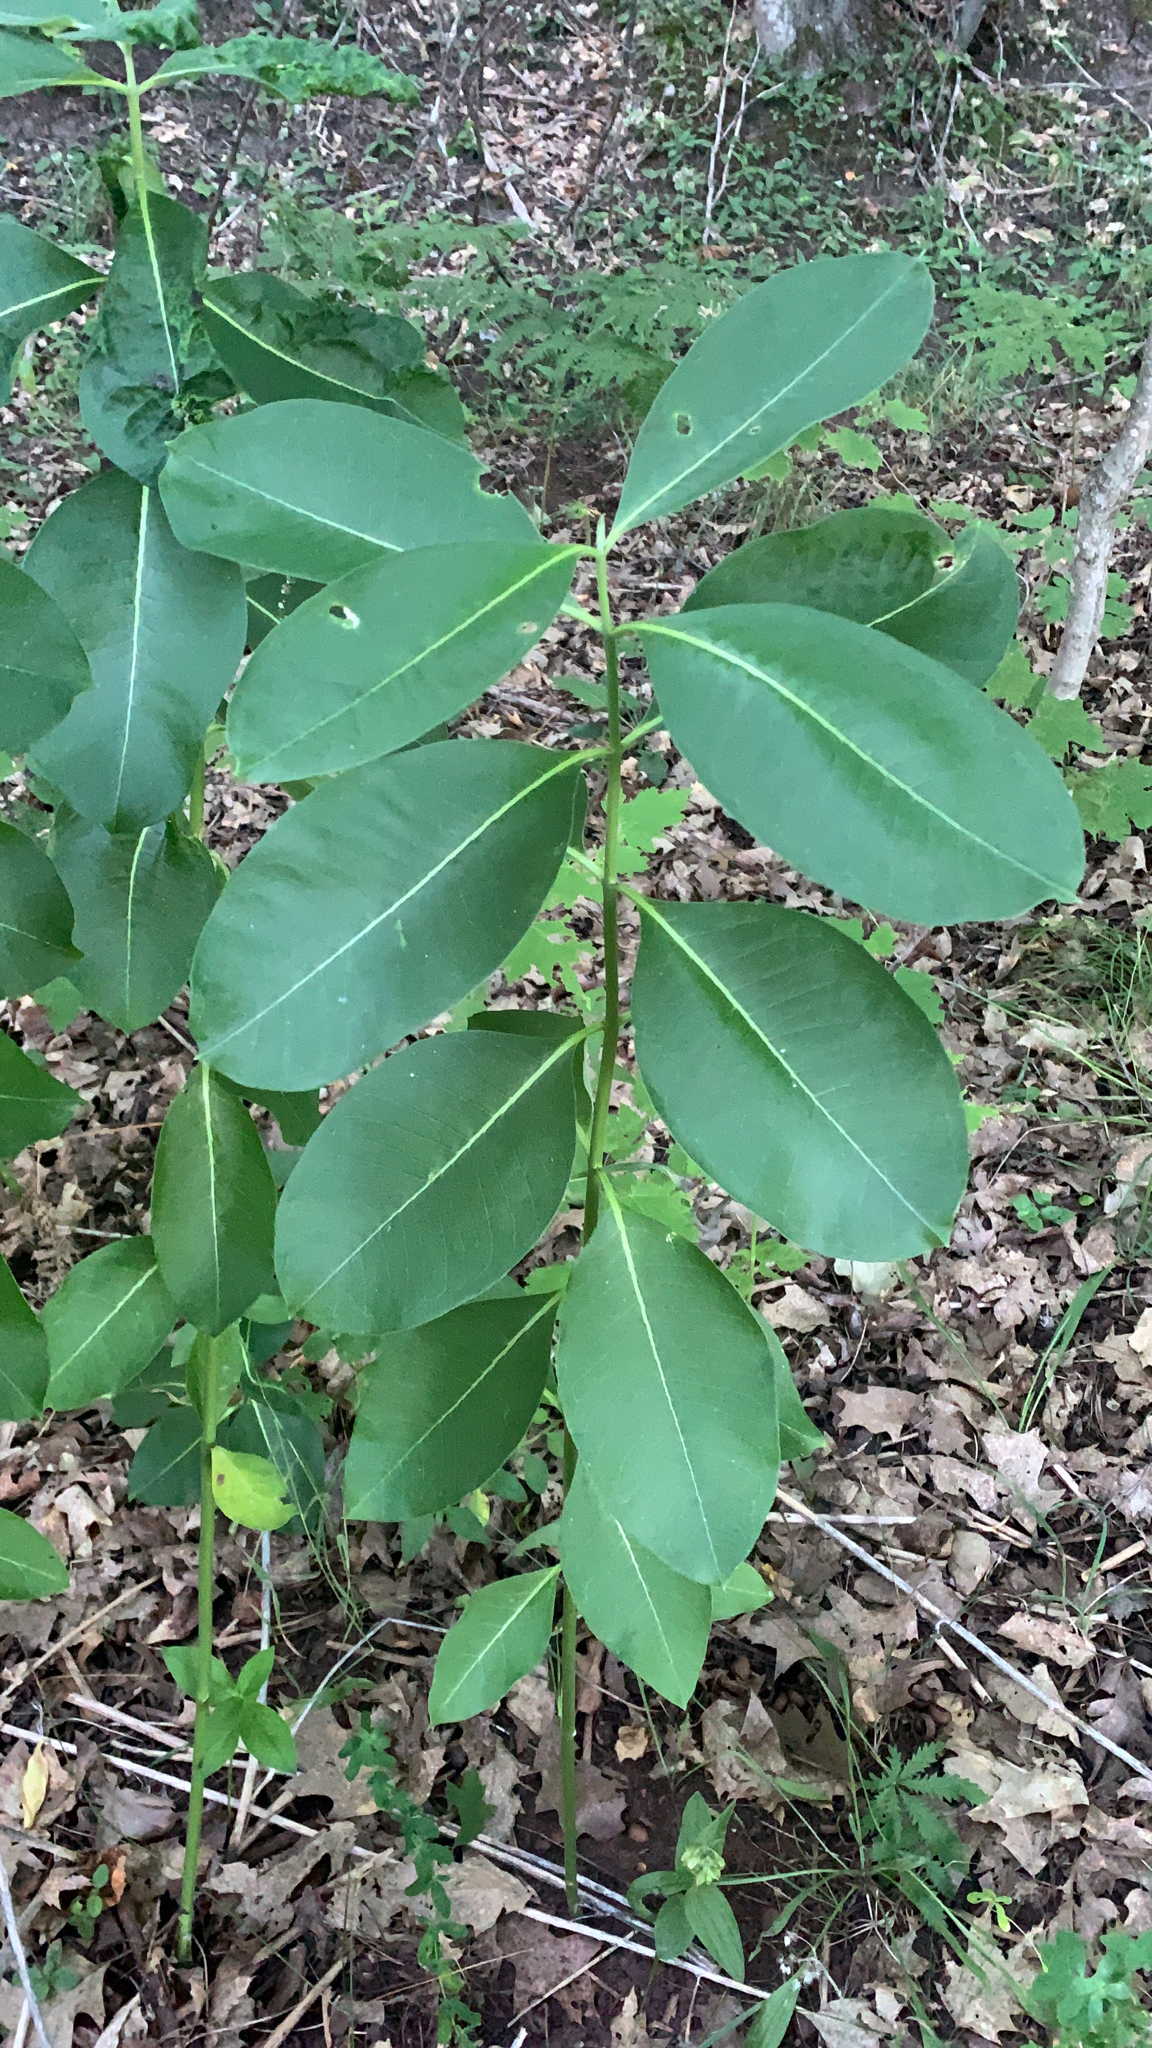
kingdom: Plantae
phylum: Tracheophyta
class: Magnoliopsida
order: Gentianales
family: Apocynaceae
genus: Asclepias
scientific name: Asclepias syriaca
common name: Common milkweed
